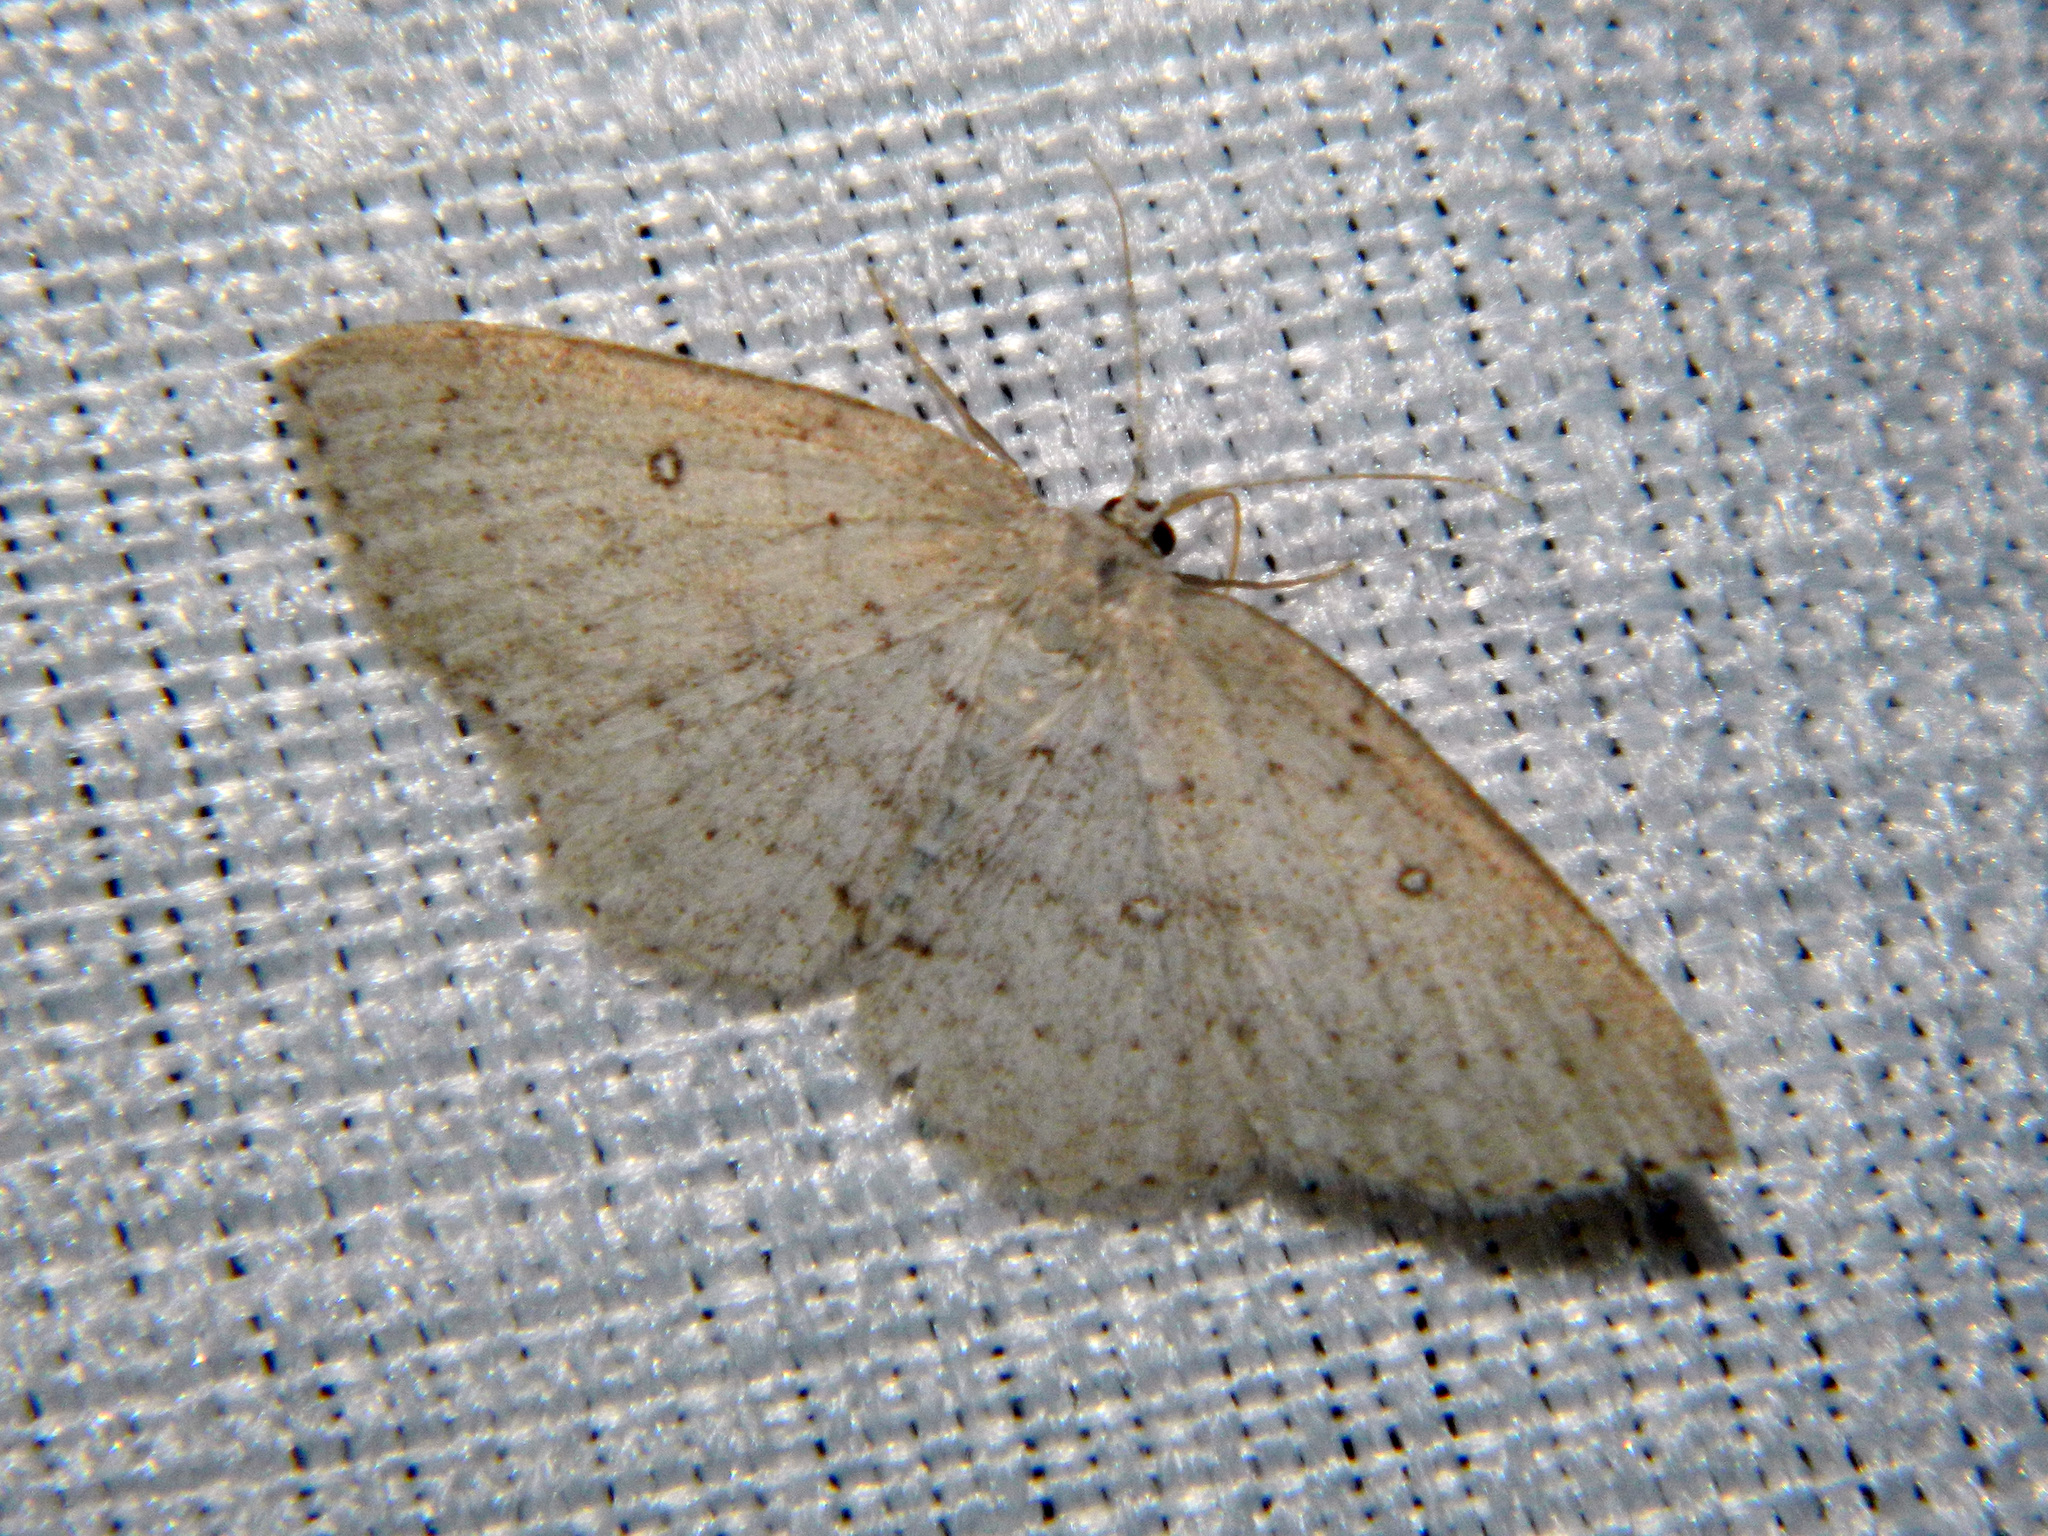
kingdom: Animalia
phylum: Arthropoda
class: Insecta
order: Lepidoptera
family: Geometridae
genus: Cyclophora
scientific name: Cyclophora pendulinaria
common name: Sweet fern geometer
